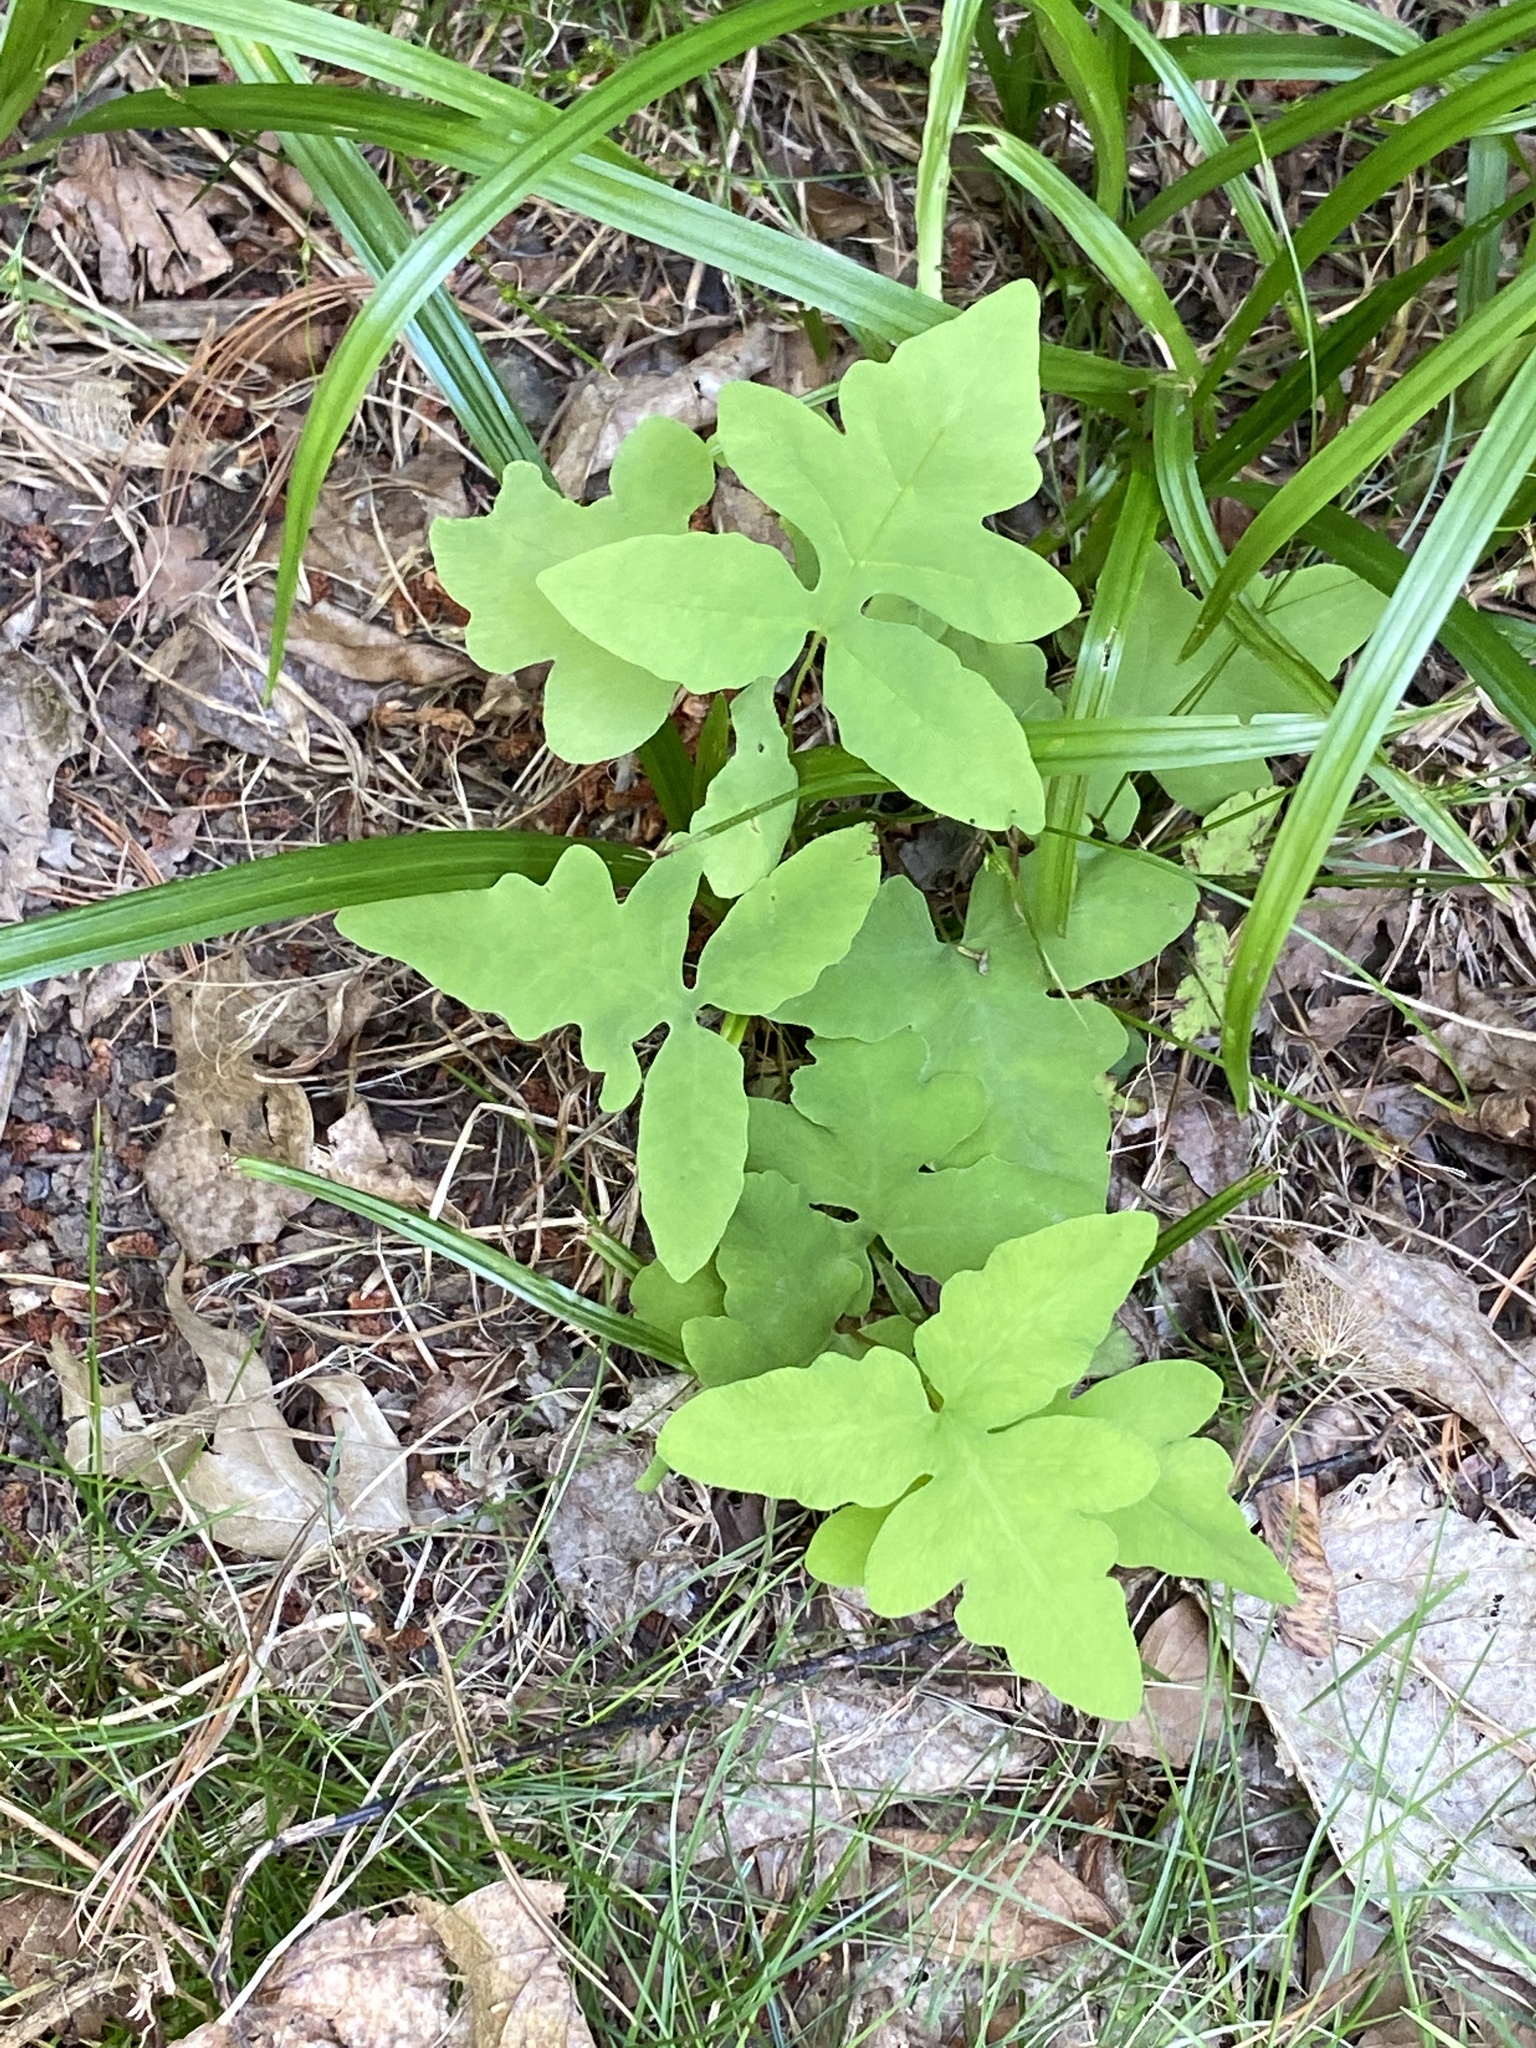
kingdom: Plantae
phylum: Tracheophyta
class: Polypodiopsida
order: Polypodiales
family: Onocleaceae
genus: Onoclea
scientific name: Onoclea sensibilis
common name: Sensitive fern
